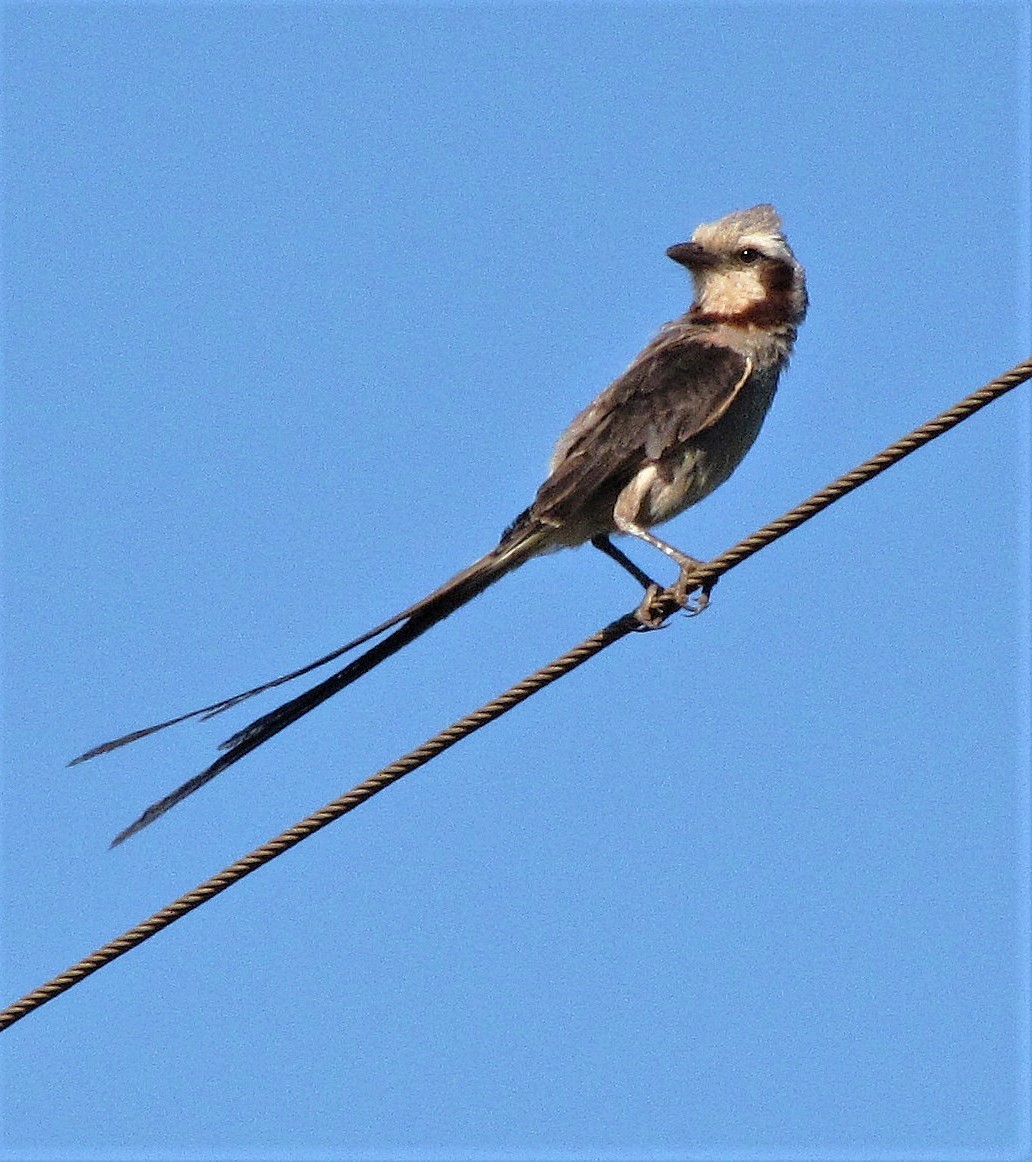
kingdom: Animalia
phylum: Chordata
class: Aves
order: Passeriformes
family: Tyrannidae
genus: Gubernetes
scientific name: Gubernetes yetapa
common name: Streamer-tailed tyrant
